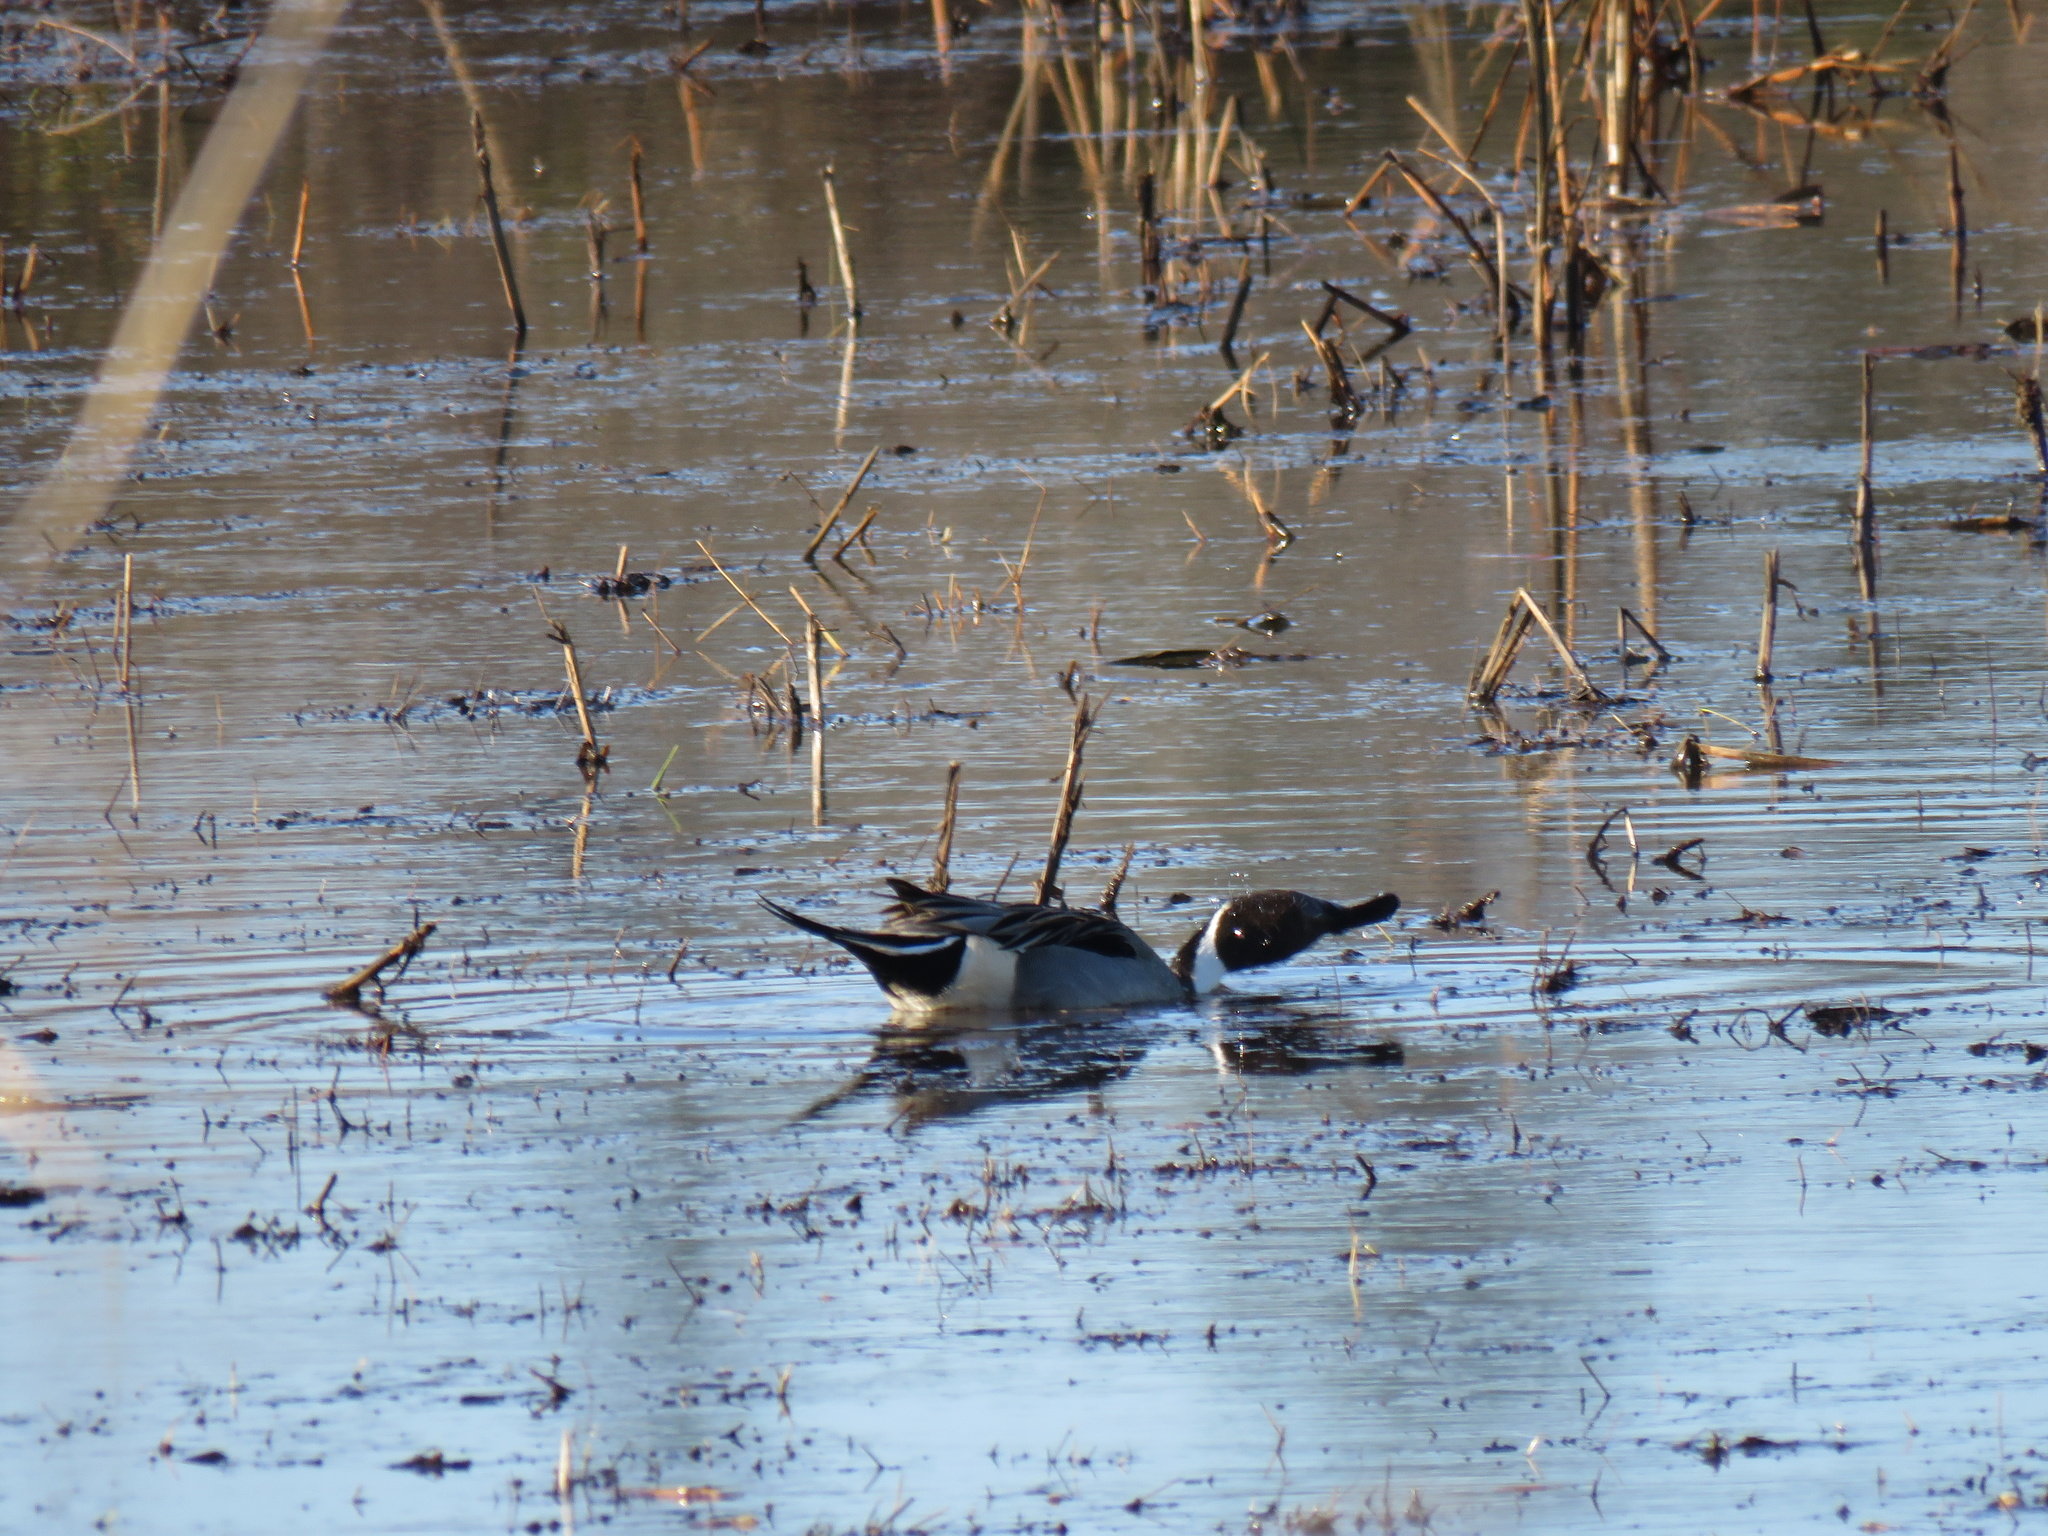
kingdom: Animalia
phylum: Chordata
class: Aves
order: Anseriformes
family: Anatidae
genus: Anas
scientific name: Anas acuta
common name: Northern pintail
